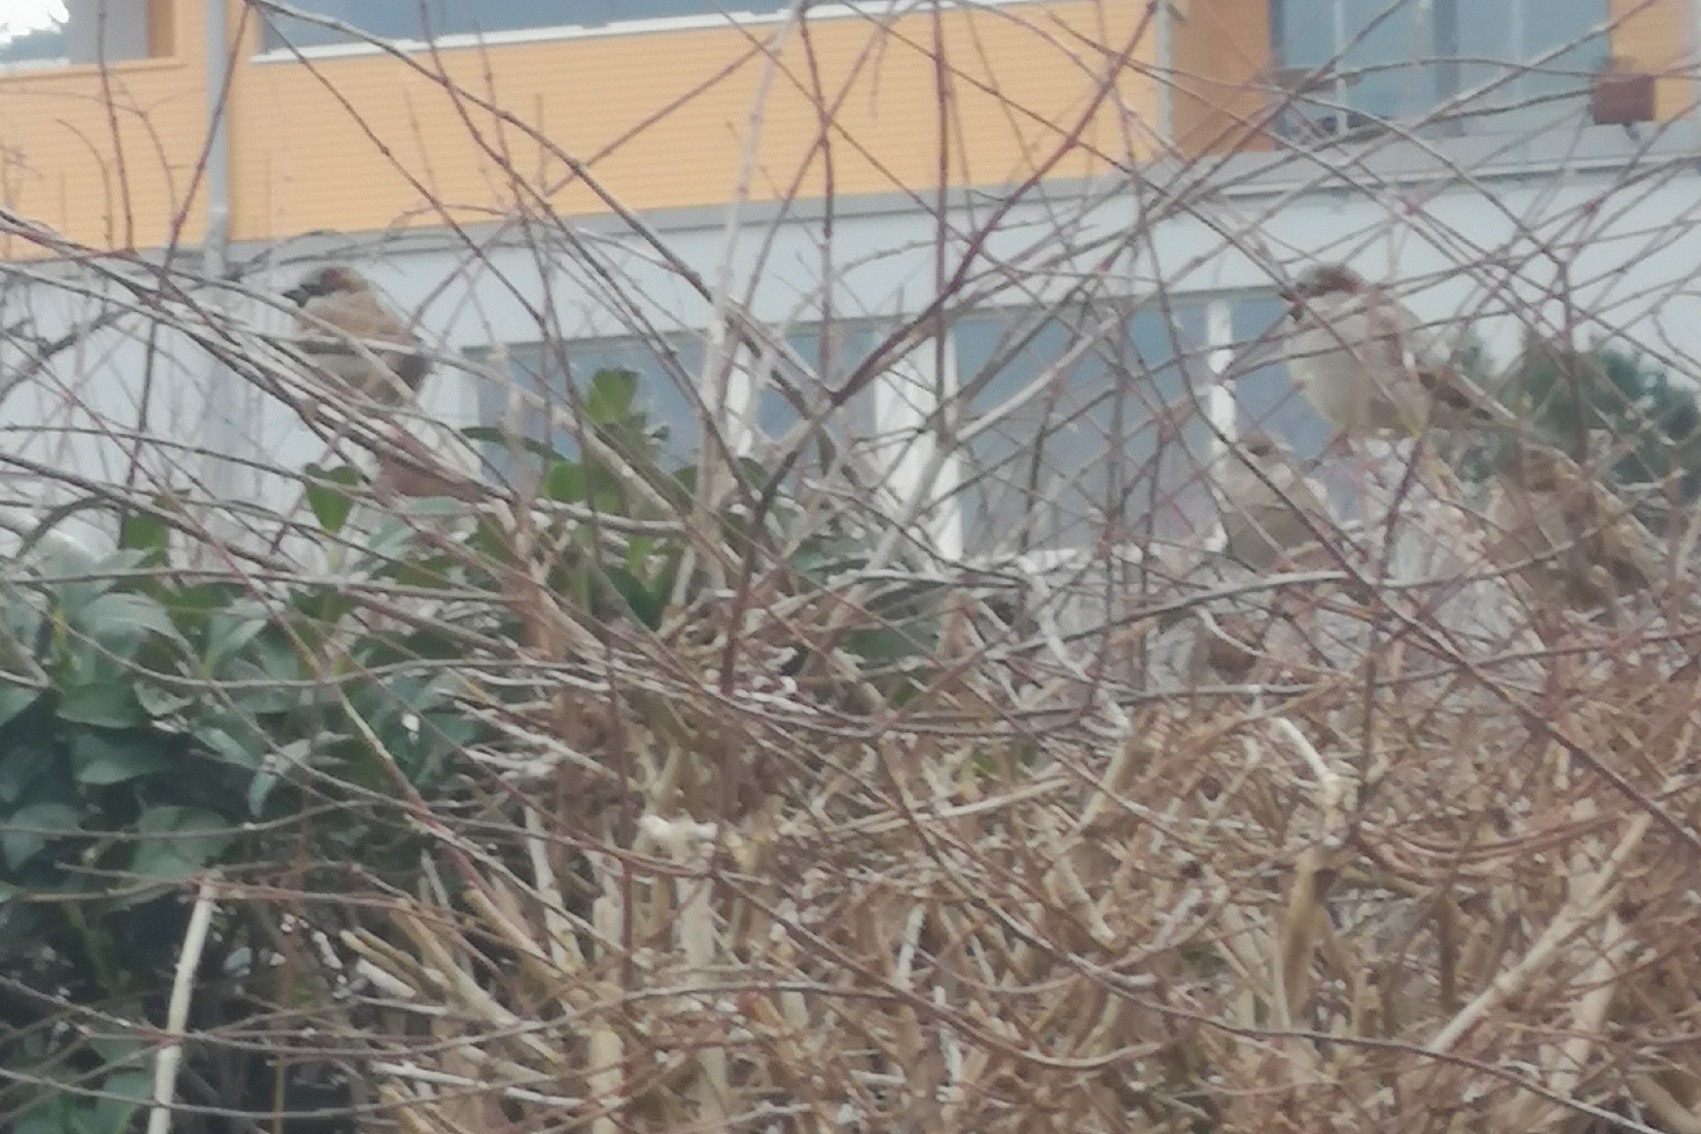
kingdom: Animalia
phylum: Chordata
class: Aves
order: Passeriformes
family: Passeridae
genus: Passer
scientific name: Passer domesticus
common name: House sparrow
